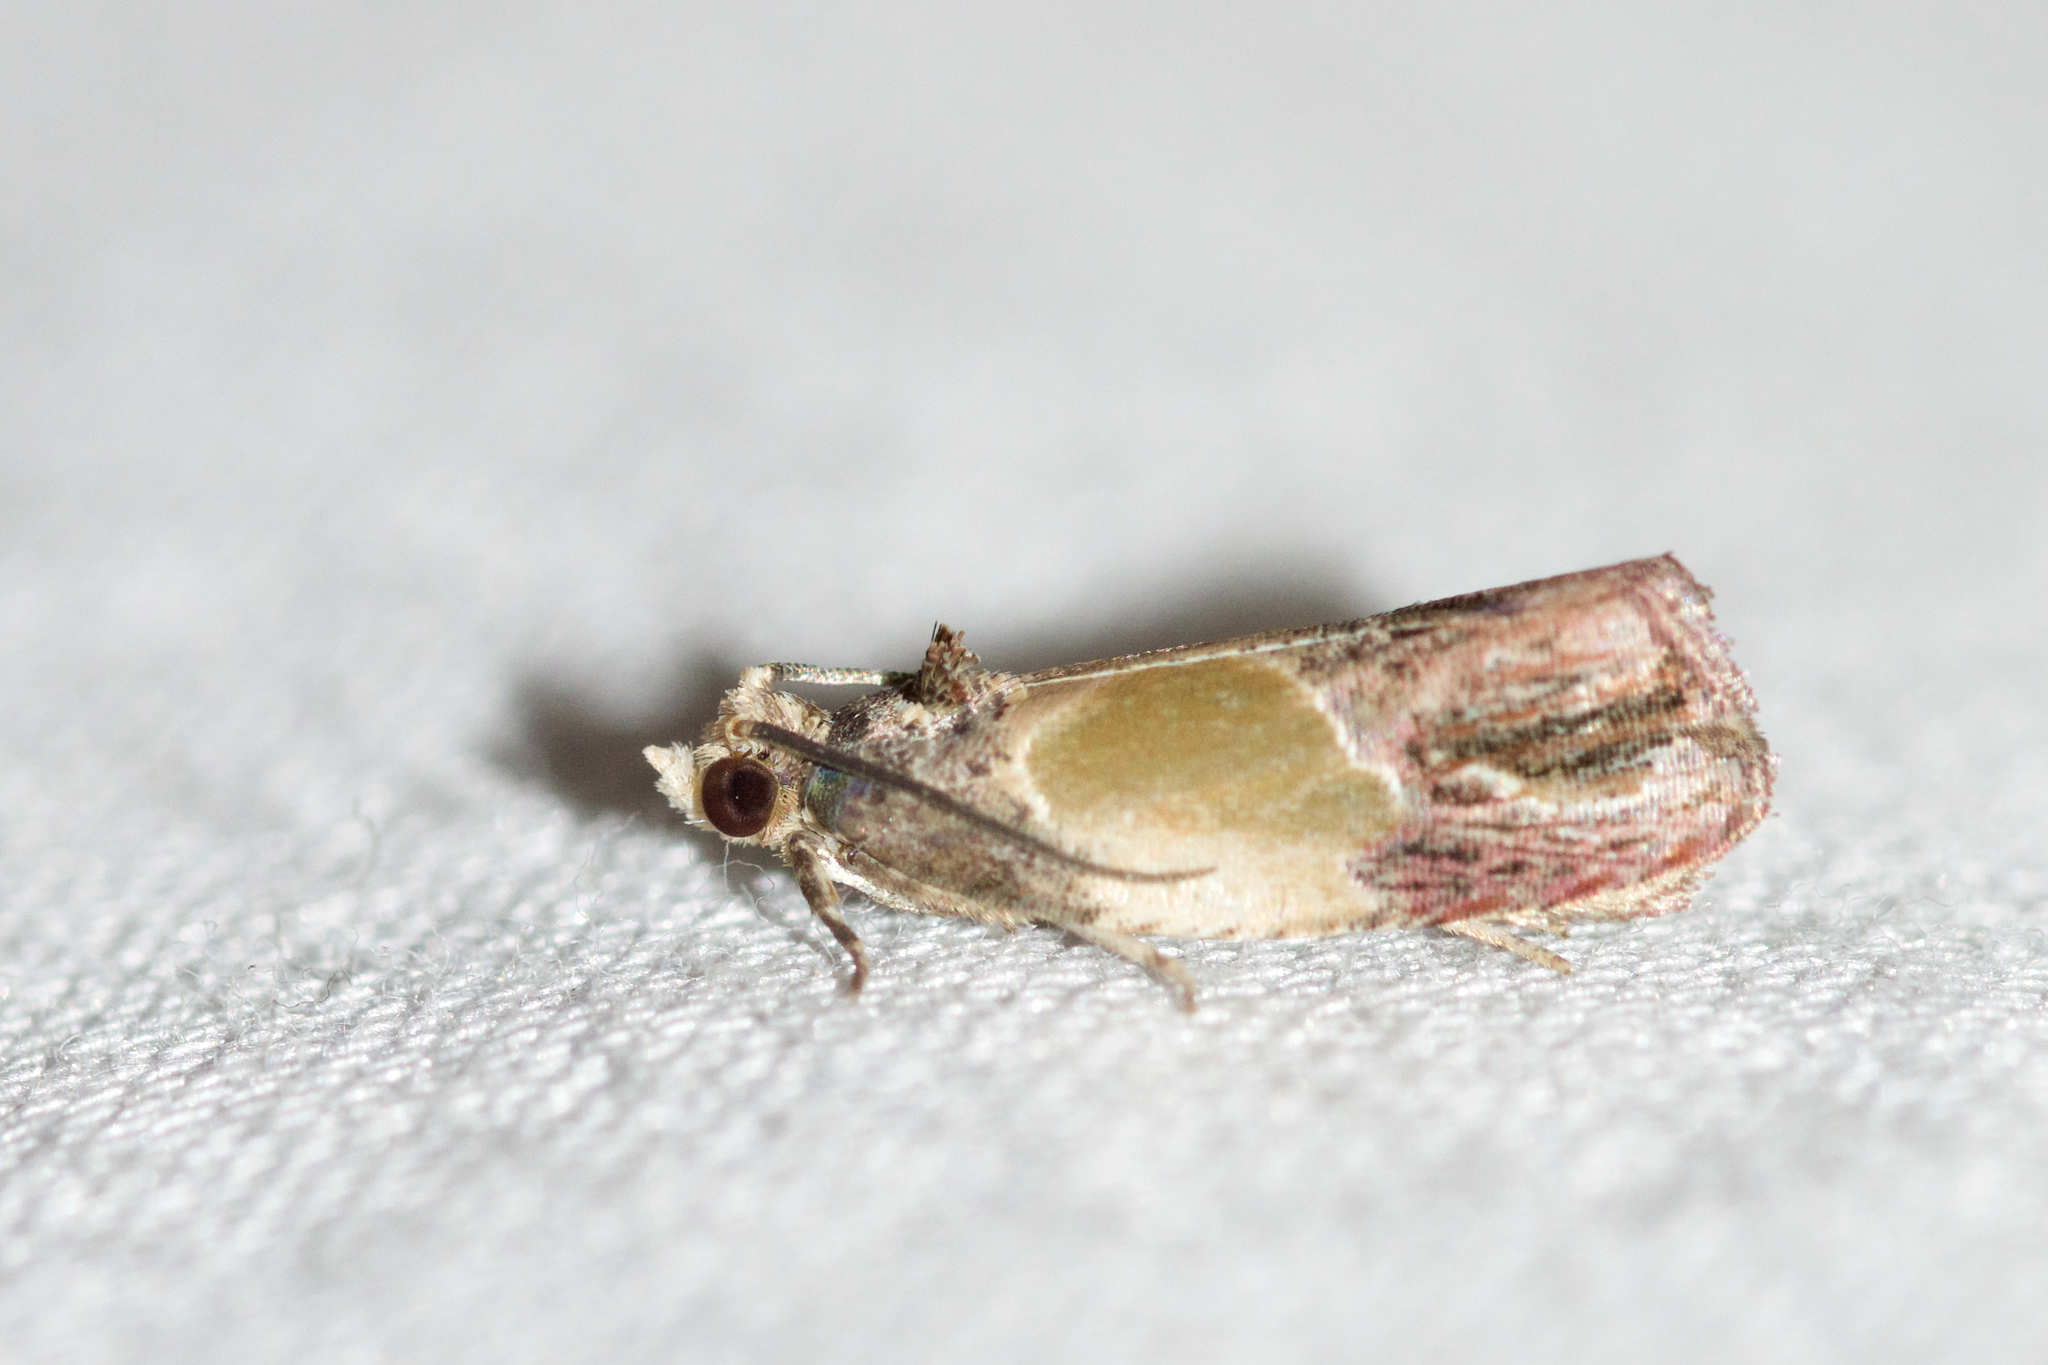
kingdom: Animalia
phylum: Arthropoda
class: Insecta
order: Lepidoptera
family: Tortricidae
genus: Eumarozia
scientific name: Eumarozia malachitana
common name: Sculptured moth
